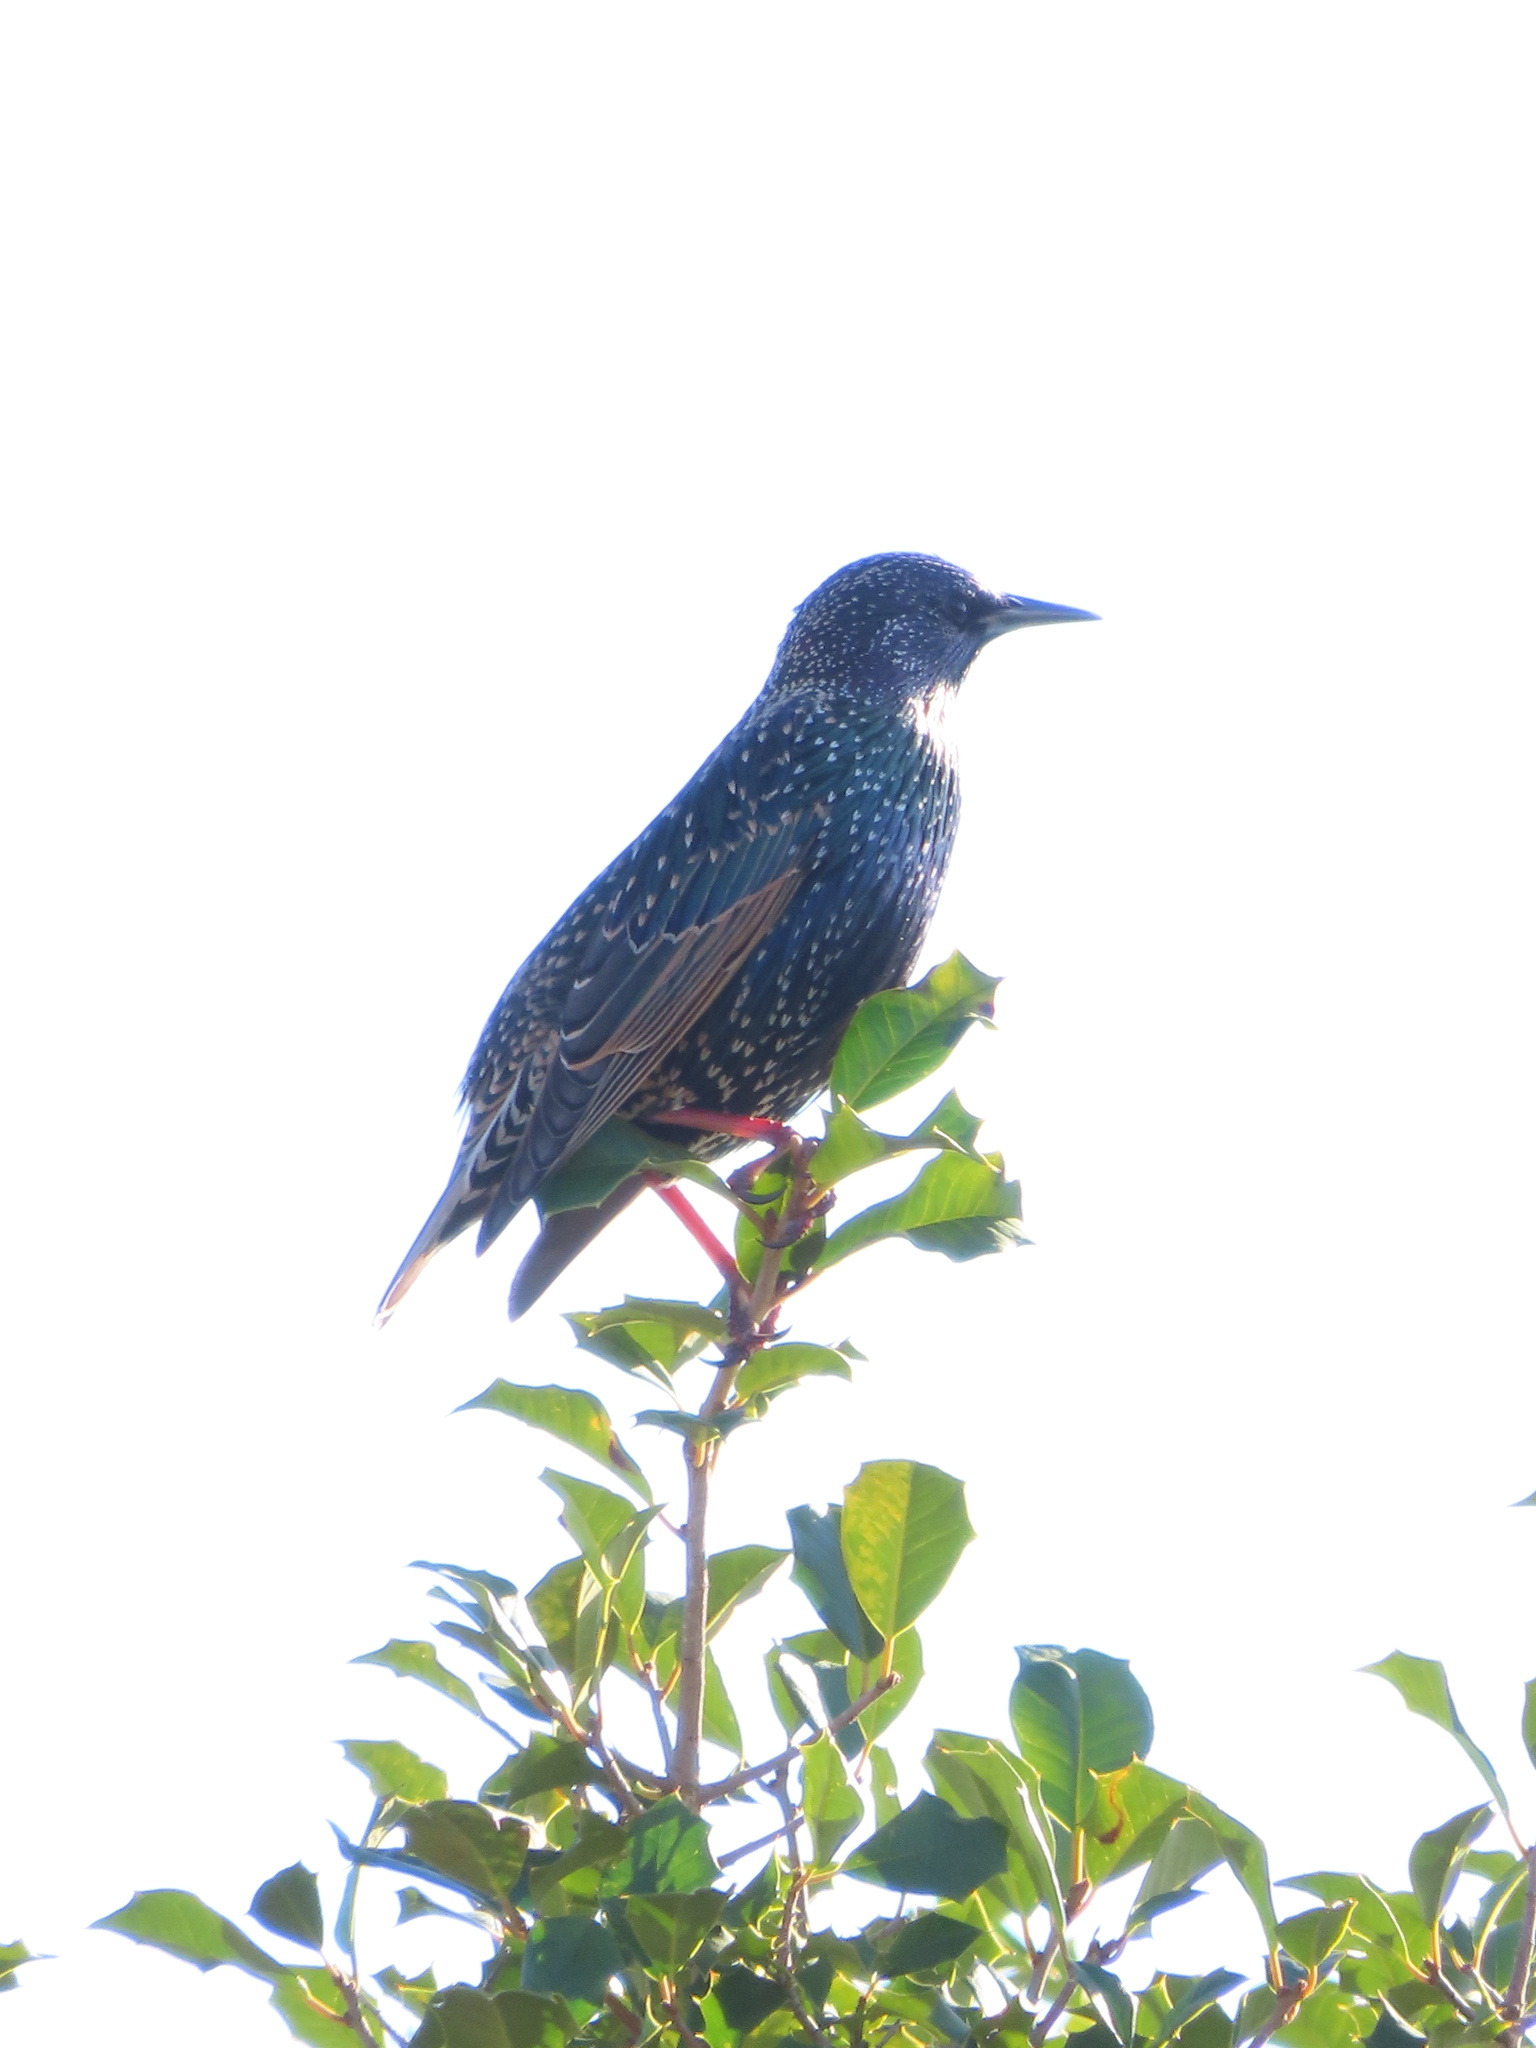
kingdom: Animalia
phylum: Chordata
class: Aves
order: Passeriformes
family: Sturnidae
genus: Sturnus
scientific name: Sturnus vulgaris
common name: Common starling
